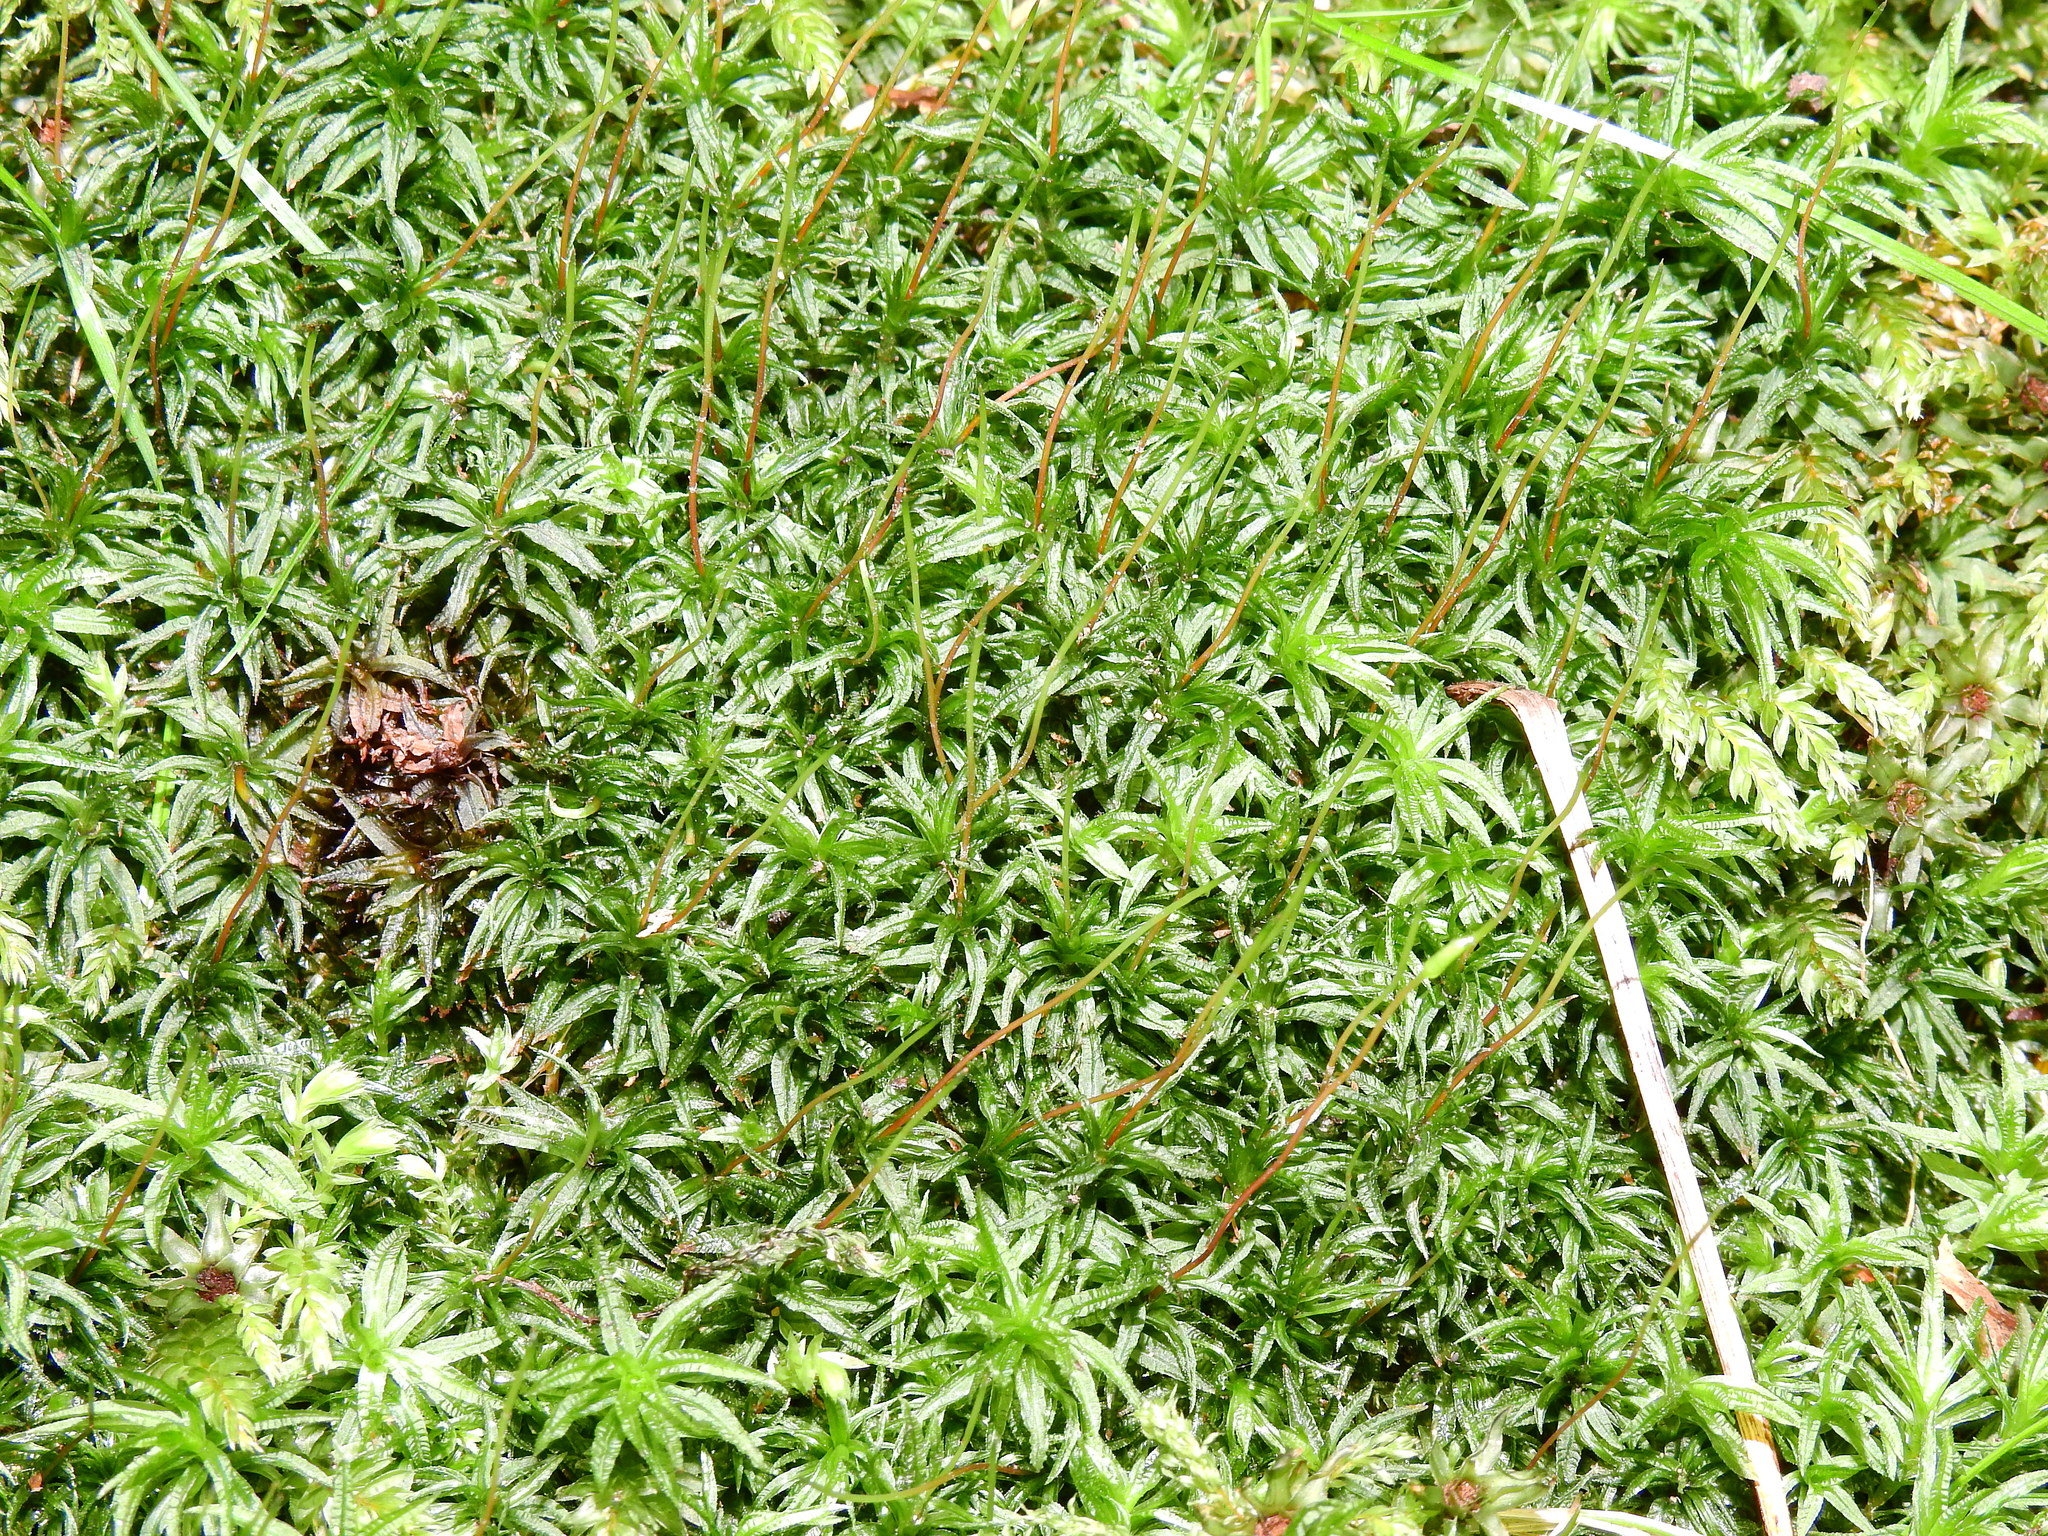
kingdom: Plantae
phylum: Bryophyta
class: Polytrichopsida
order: Polytrichales
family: Polytrichaceae
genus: Atrichum
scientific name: Atrichum undulatum
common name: Common smoothcap
